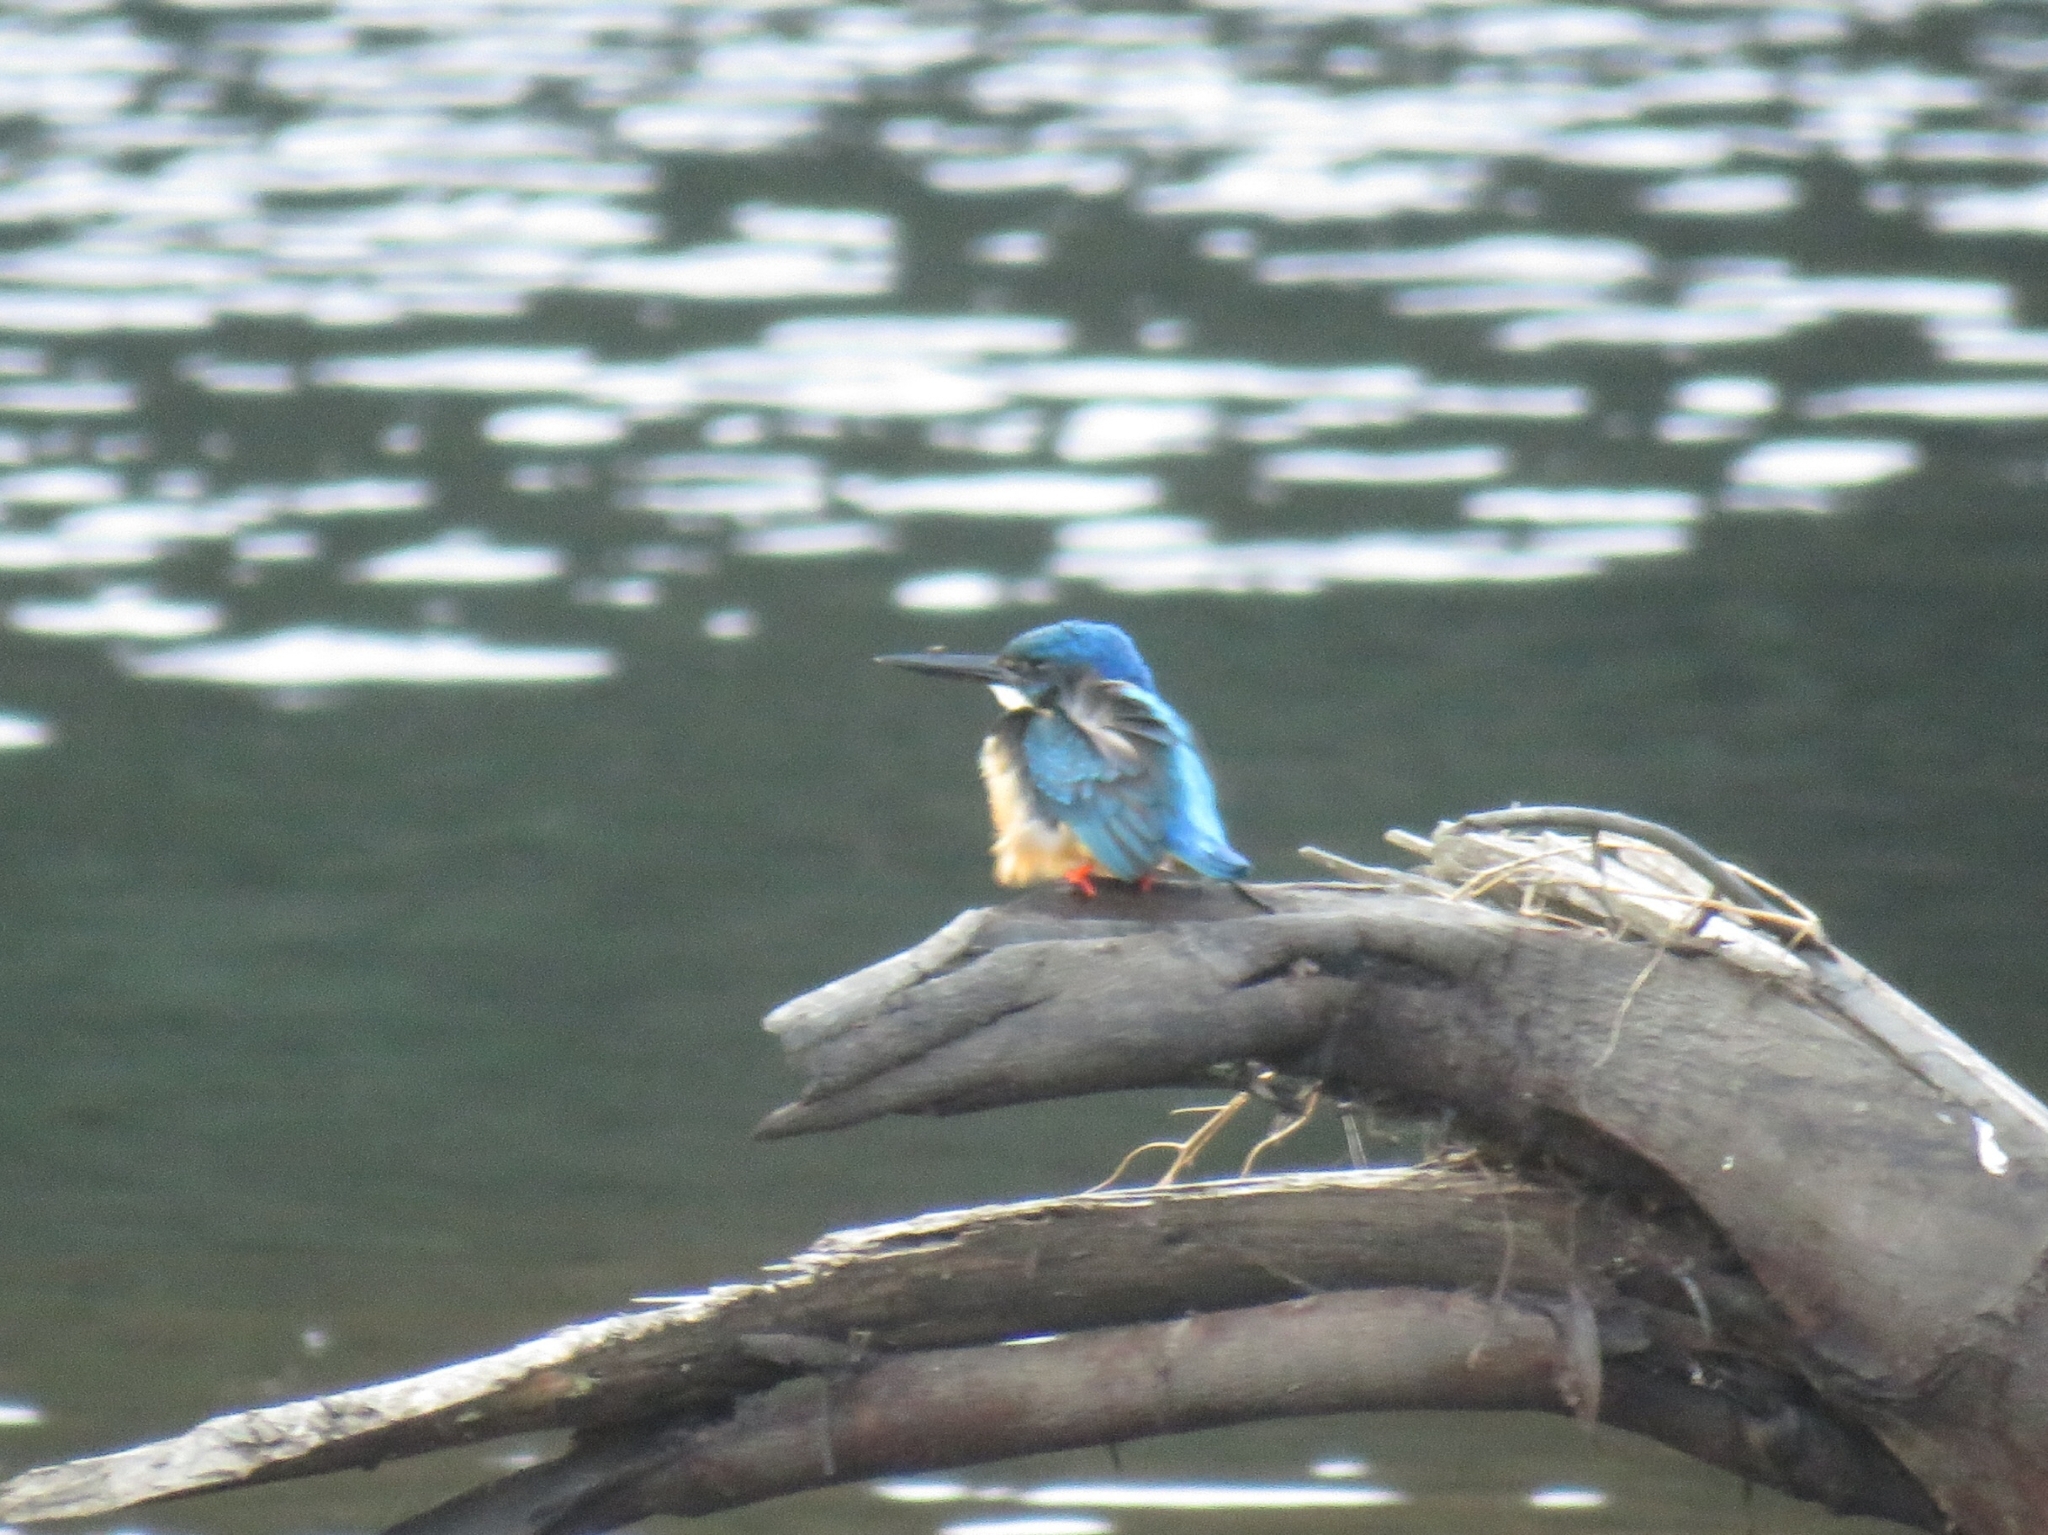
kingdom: Animalia
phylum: Chordata
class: Aves
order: Coraciiformes
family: Alcedinidae
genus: Alcedo
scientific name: Alcedo semitorquata
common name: Half-collared kingfisher
